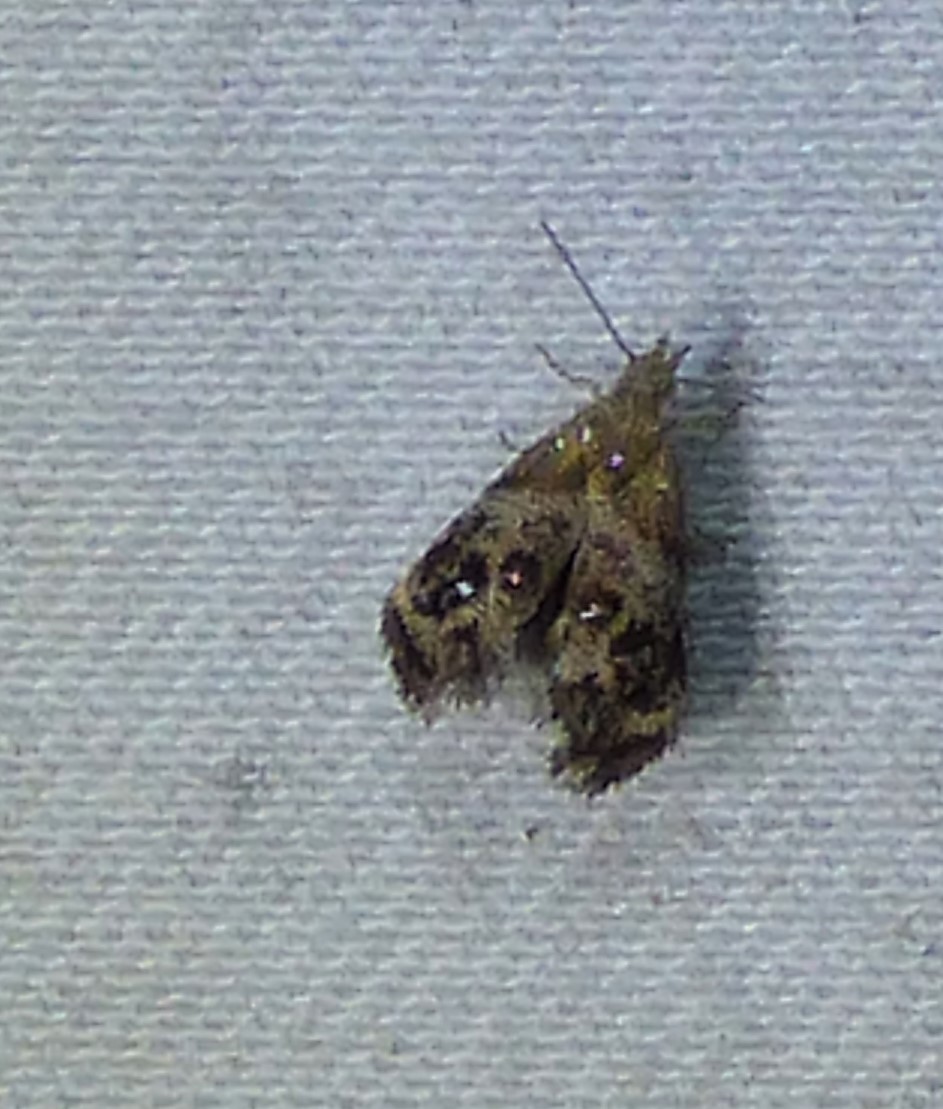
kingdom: Animalia
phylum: Arthropoda
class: Insecta
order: Lepidoptera
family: Choreutidae
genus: Tebenna
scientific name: Tebenna gnaphaliella
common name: Everlasting tebenna moth
